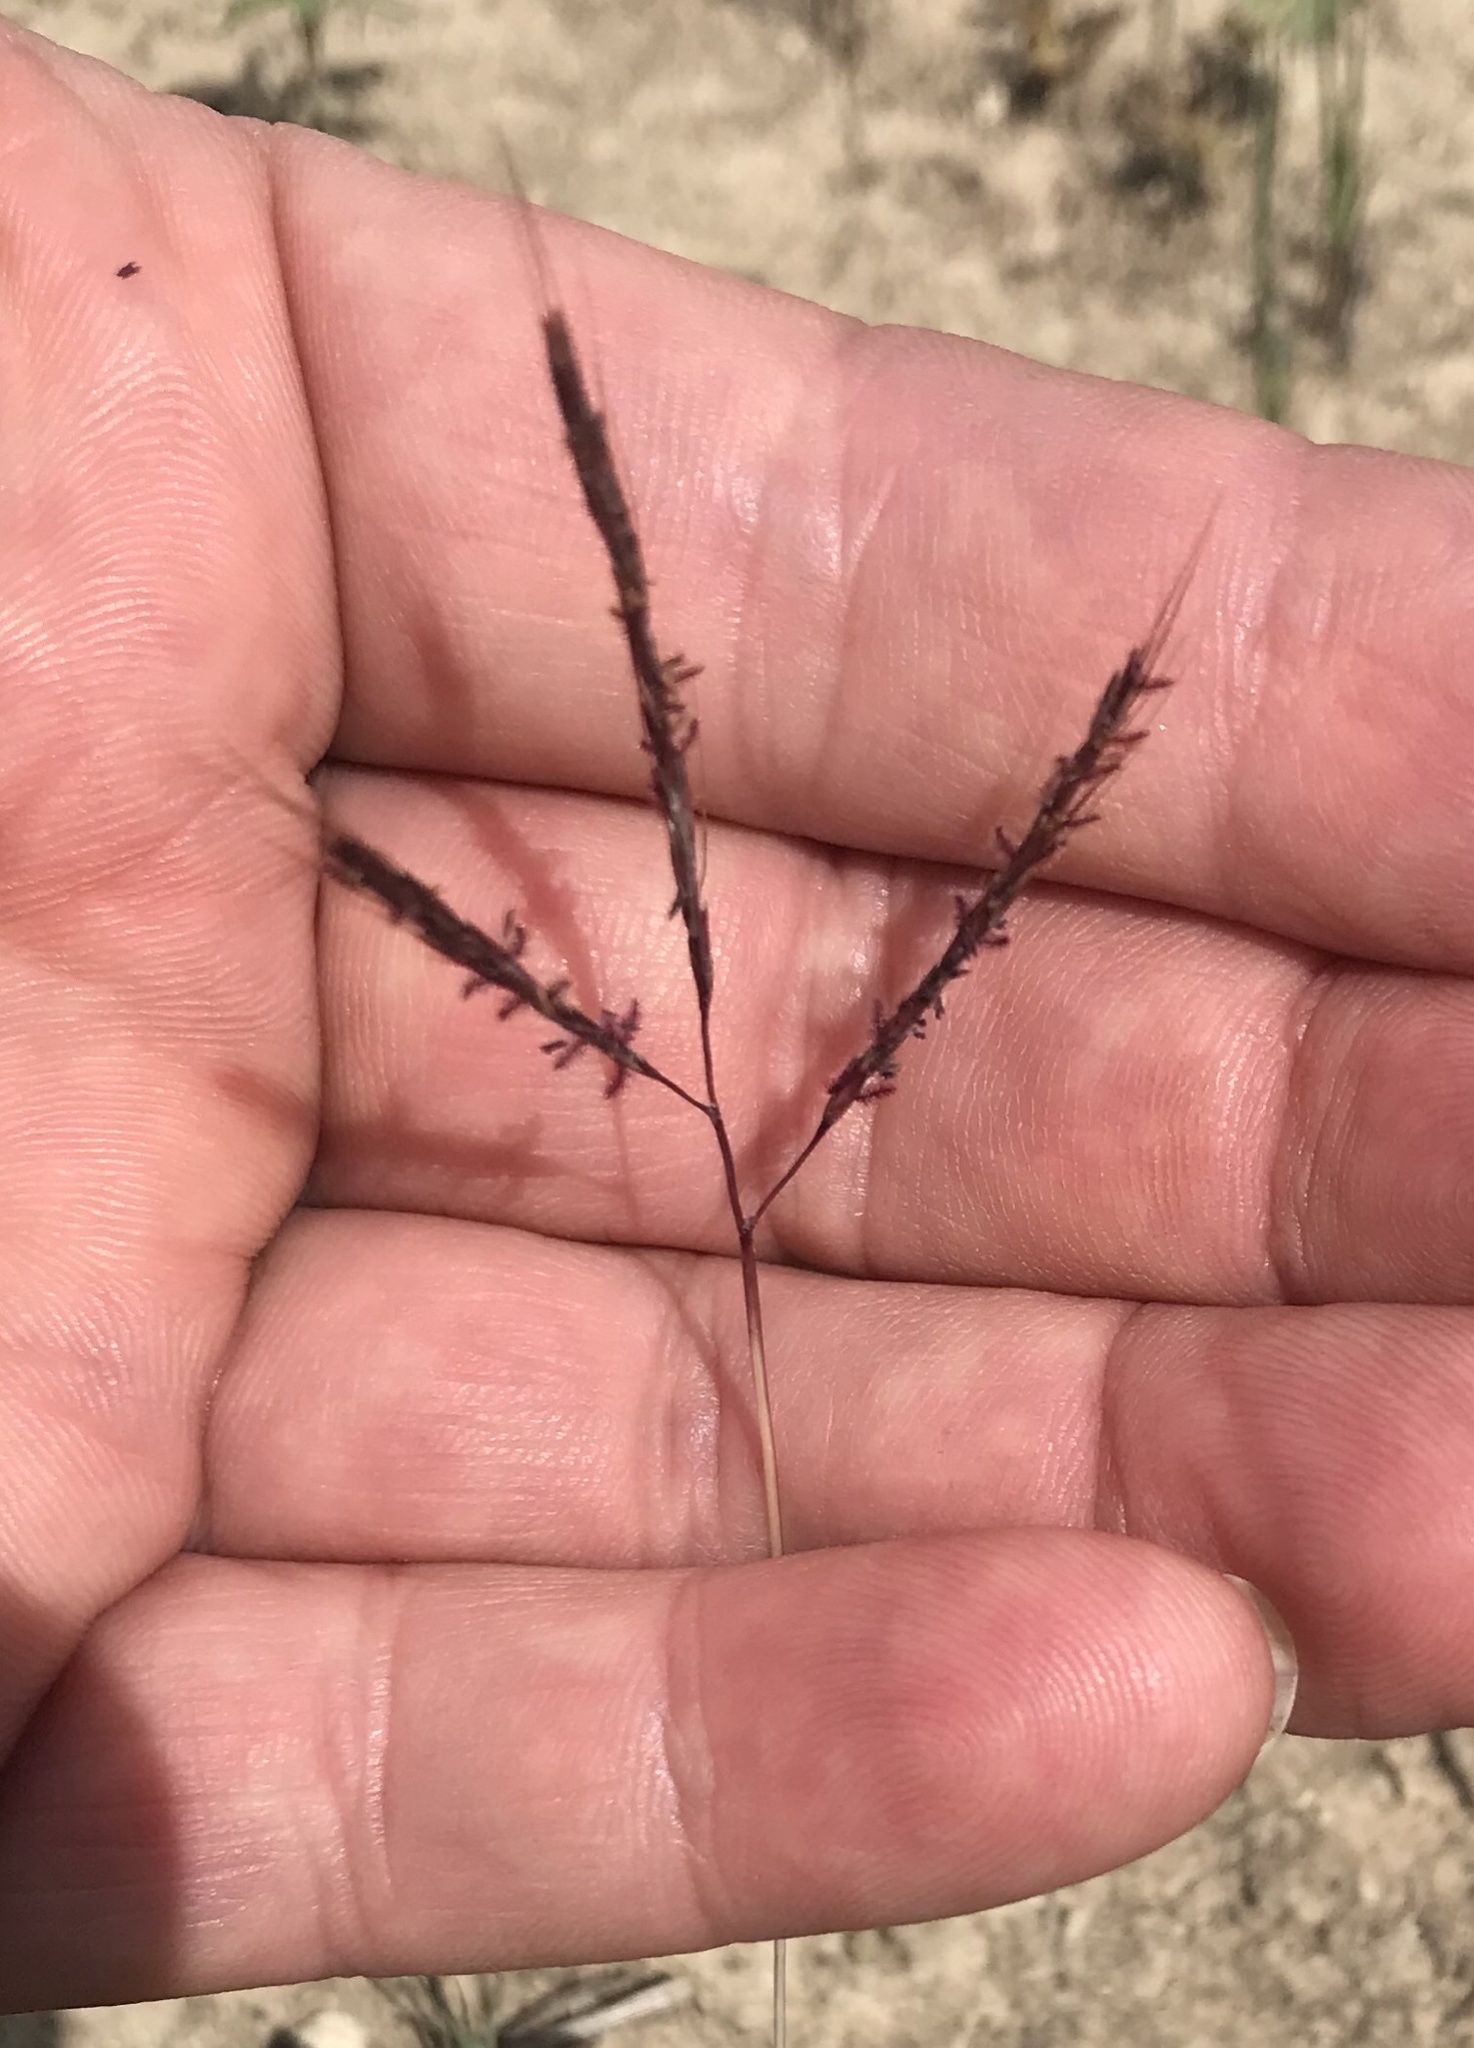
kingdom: Plantae
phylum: Tracheophyta
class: Liliopsida
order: Poales
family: Poaceae
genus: Bothriochloa
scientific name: Bothriochloa ischaemum
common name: Yellow bluestem
